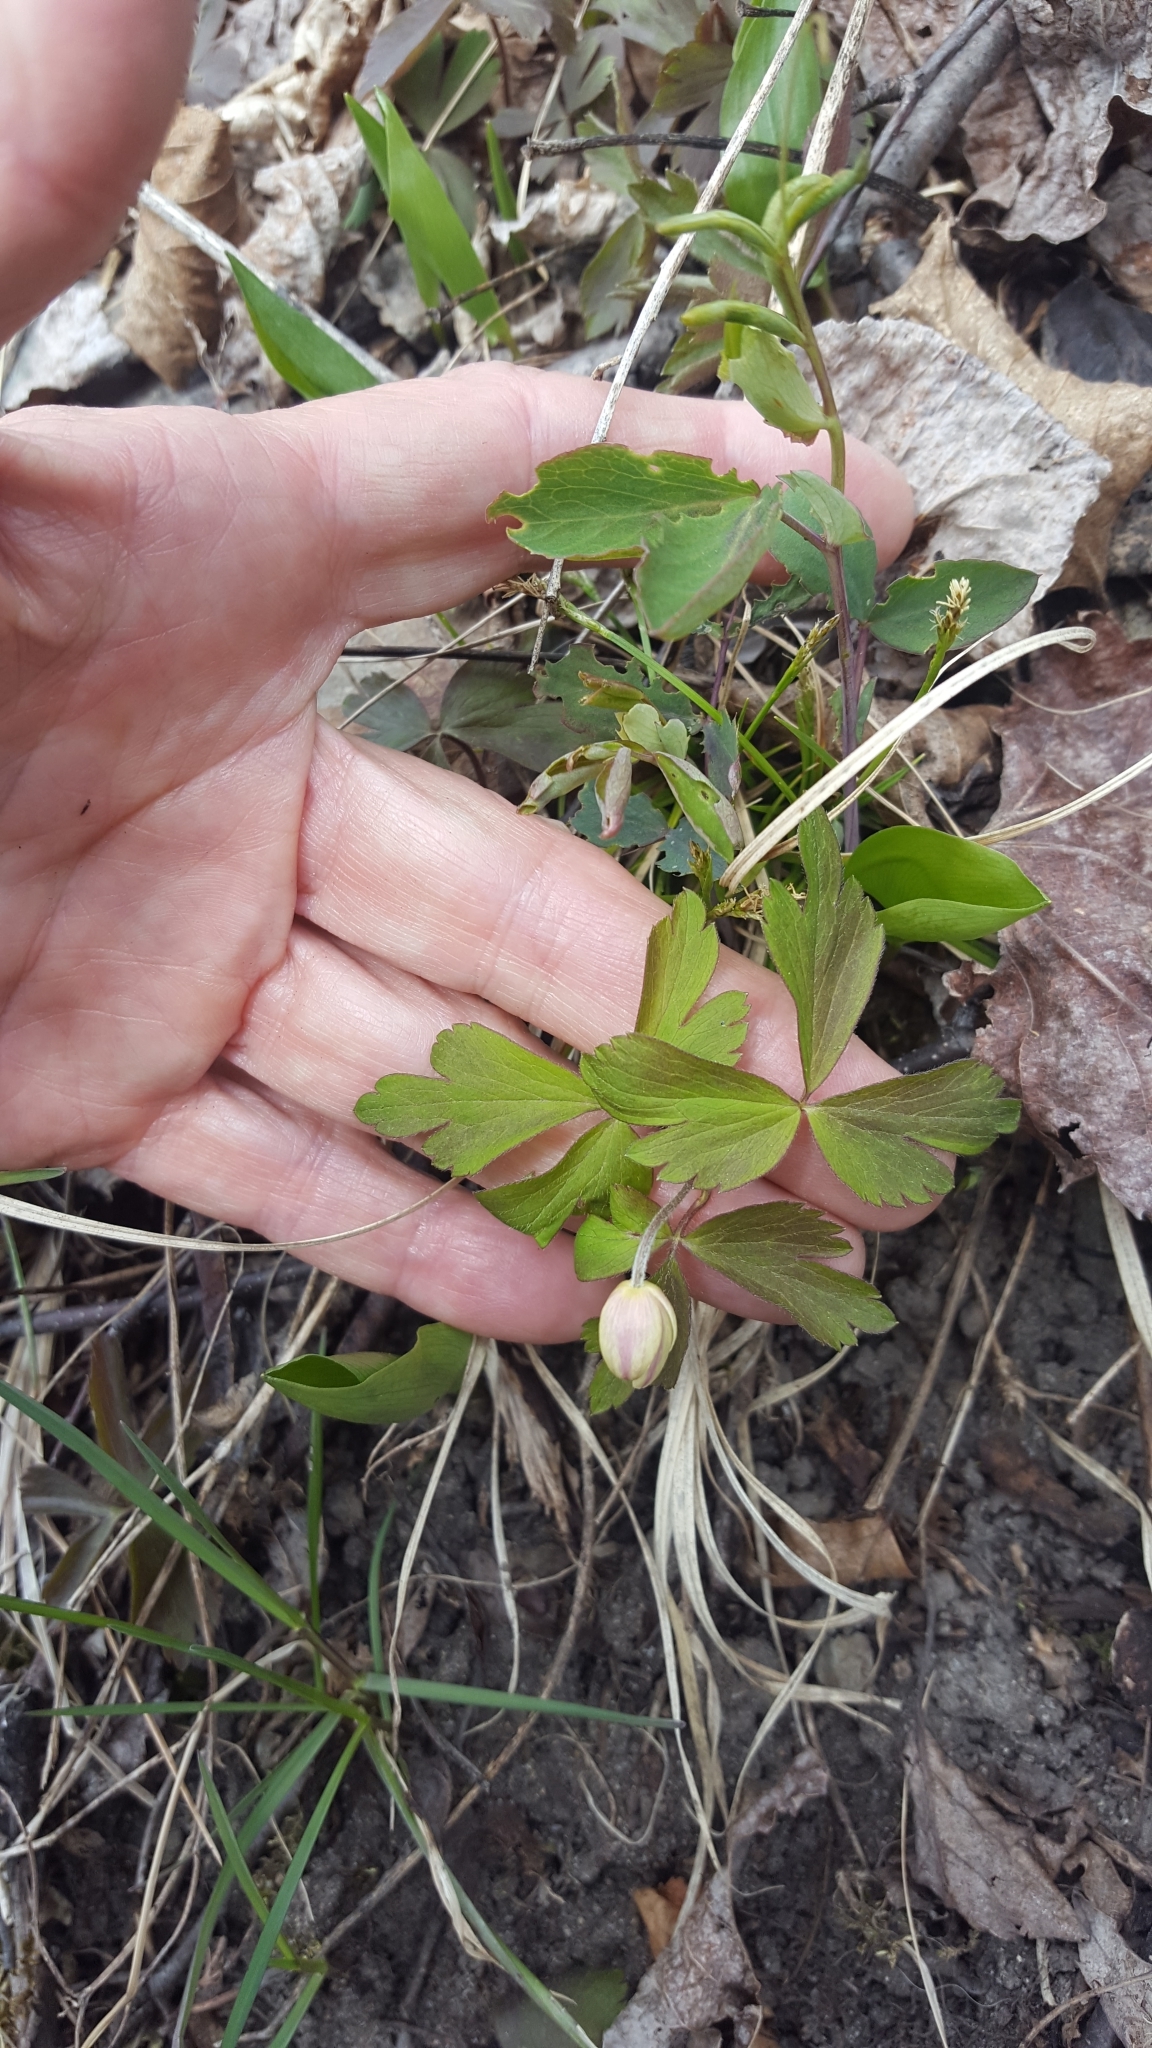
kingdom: Plantae
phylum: Tracheophyta
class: Magnoliopsida
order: Ranunculales
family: Ranunculaceae
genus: Anemone
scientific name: Anemone quinquefolia
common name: Wood anemone
